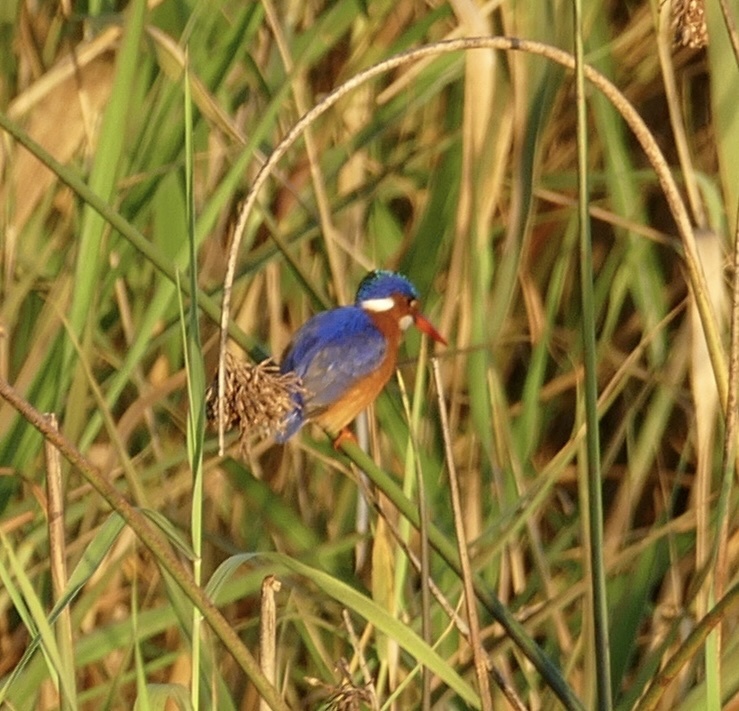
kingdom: Animalia
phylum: Chordata
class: Aves
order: Coraciiformes
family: Alcedinidae
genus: Corythornis
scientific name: Corythornis cristatus
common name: Malachite kingfisher
